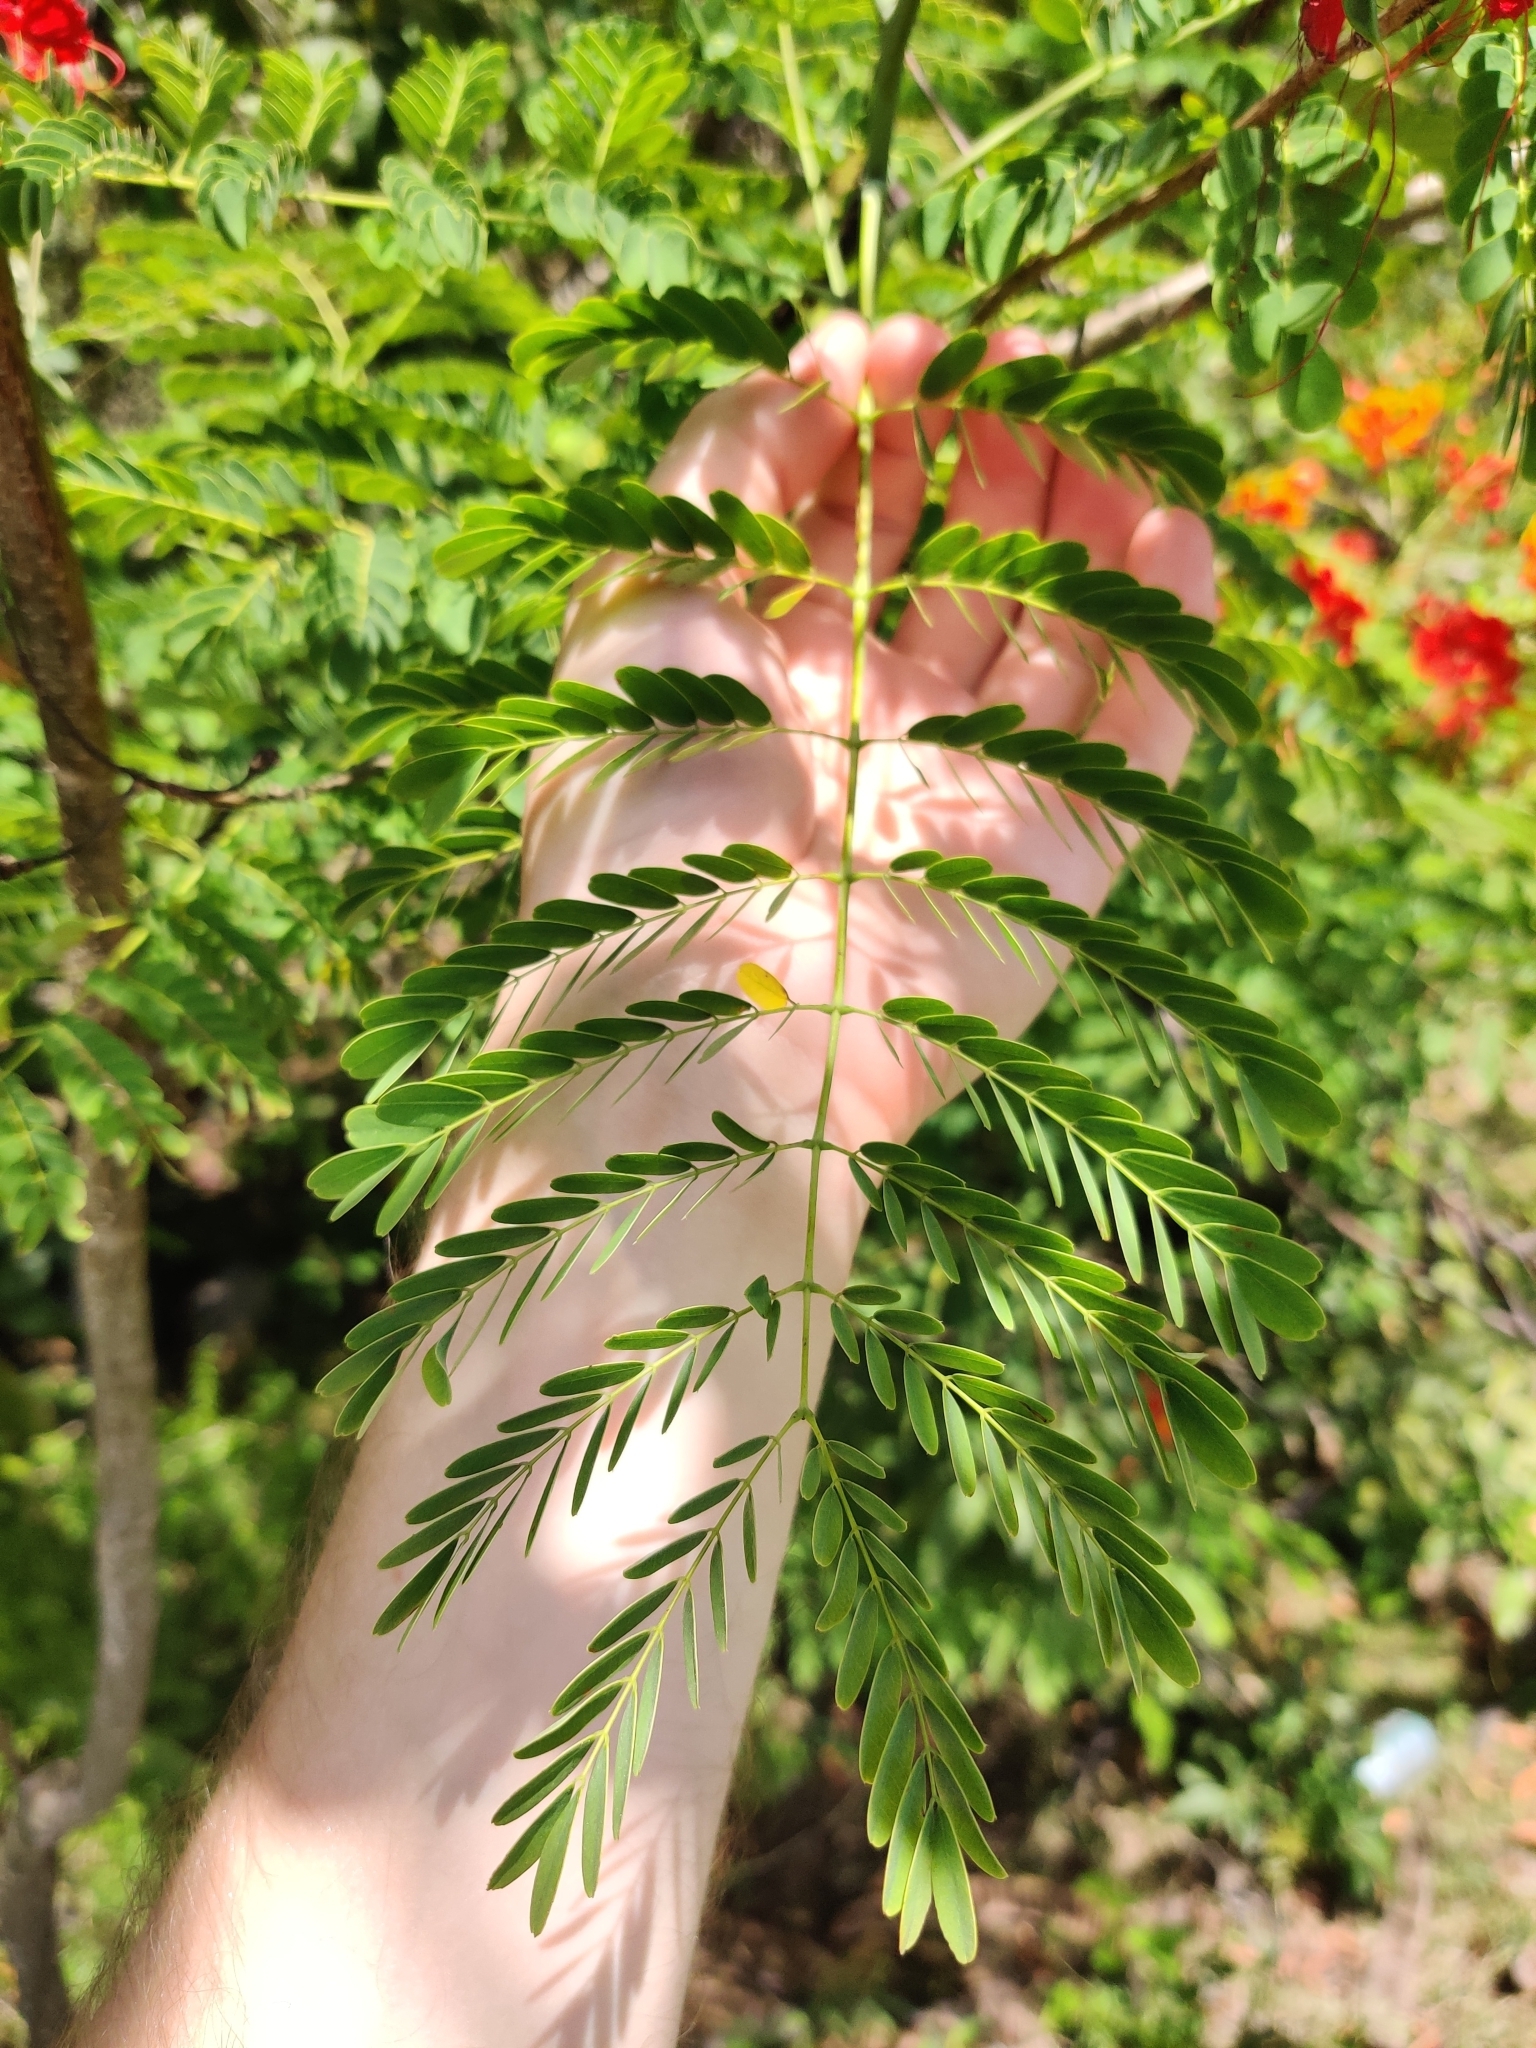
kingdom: Plantae
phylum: Tracheophyta
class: Magnoliopsida
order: Fabales
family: Fabaceae
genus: Caesalpinia
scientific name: Caesalpinia pulcherrima
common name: Pride-of-barbados
